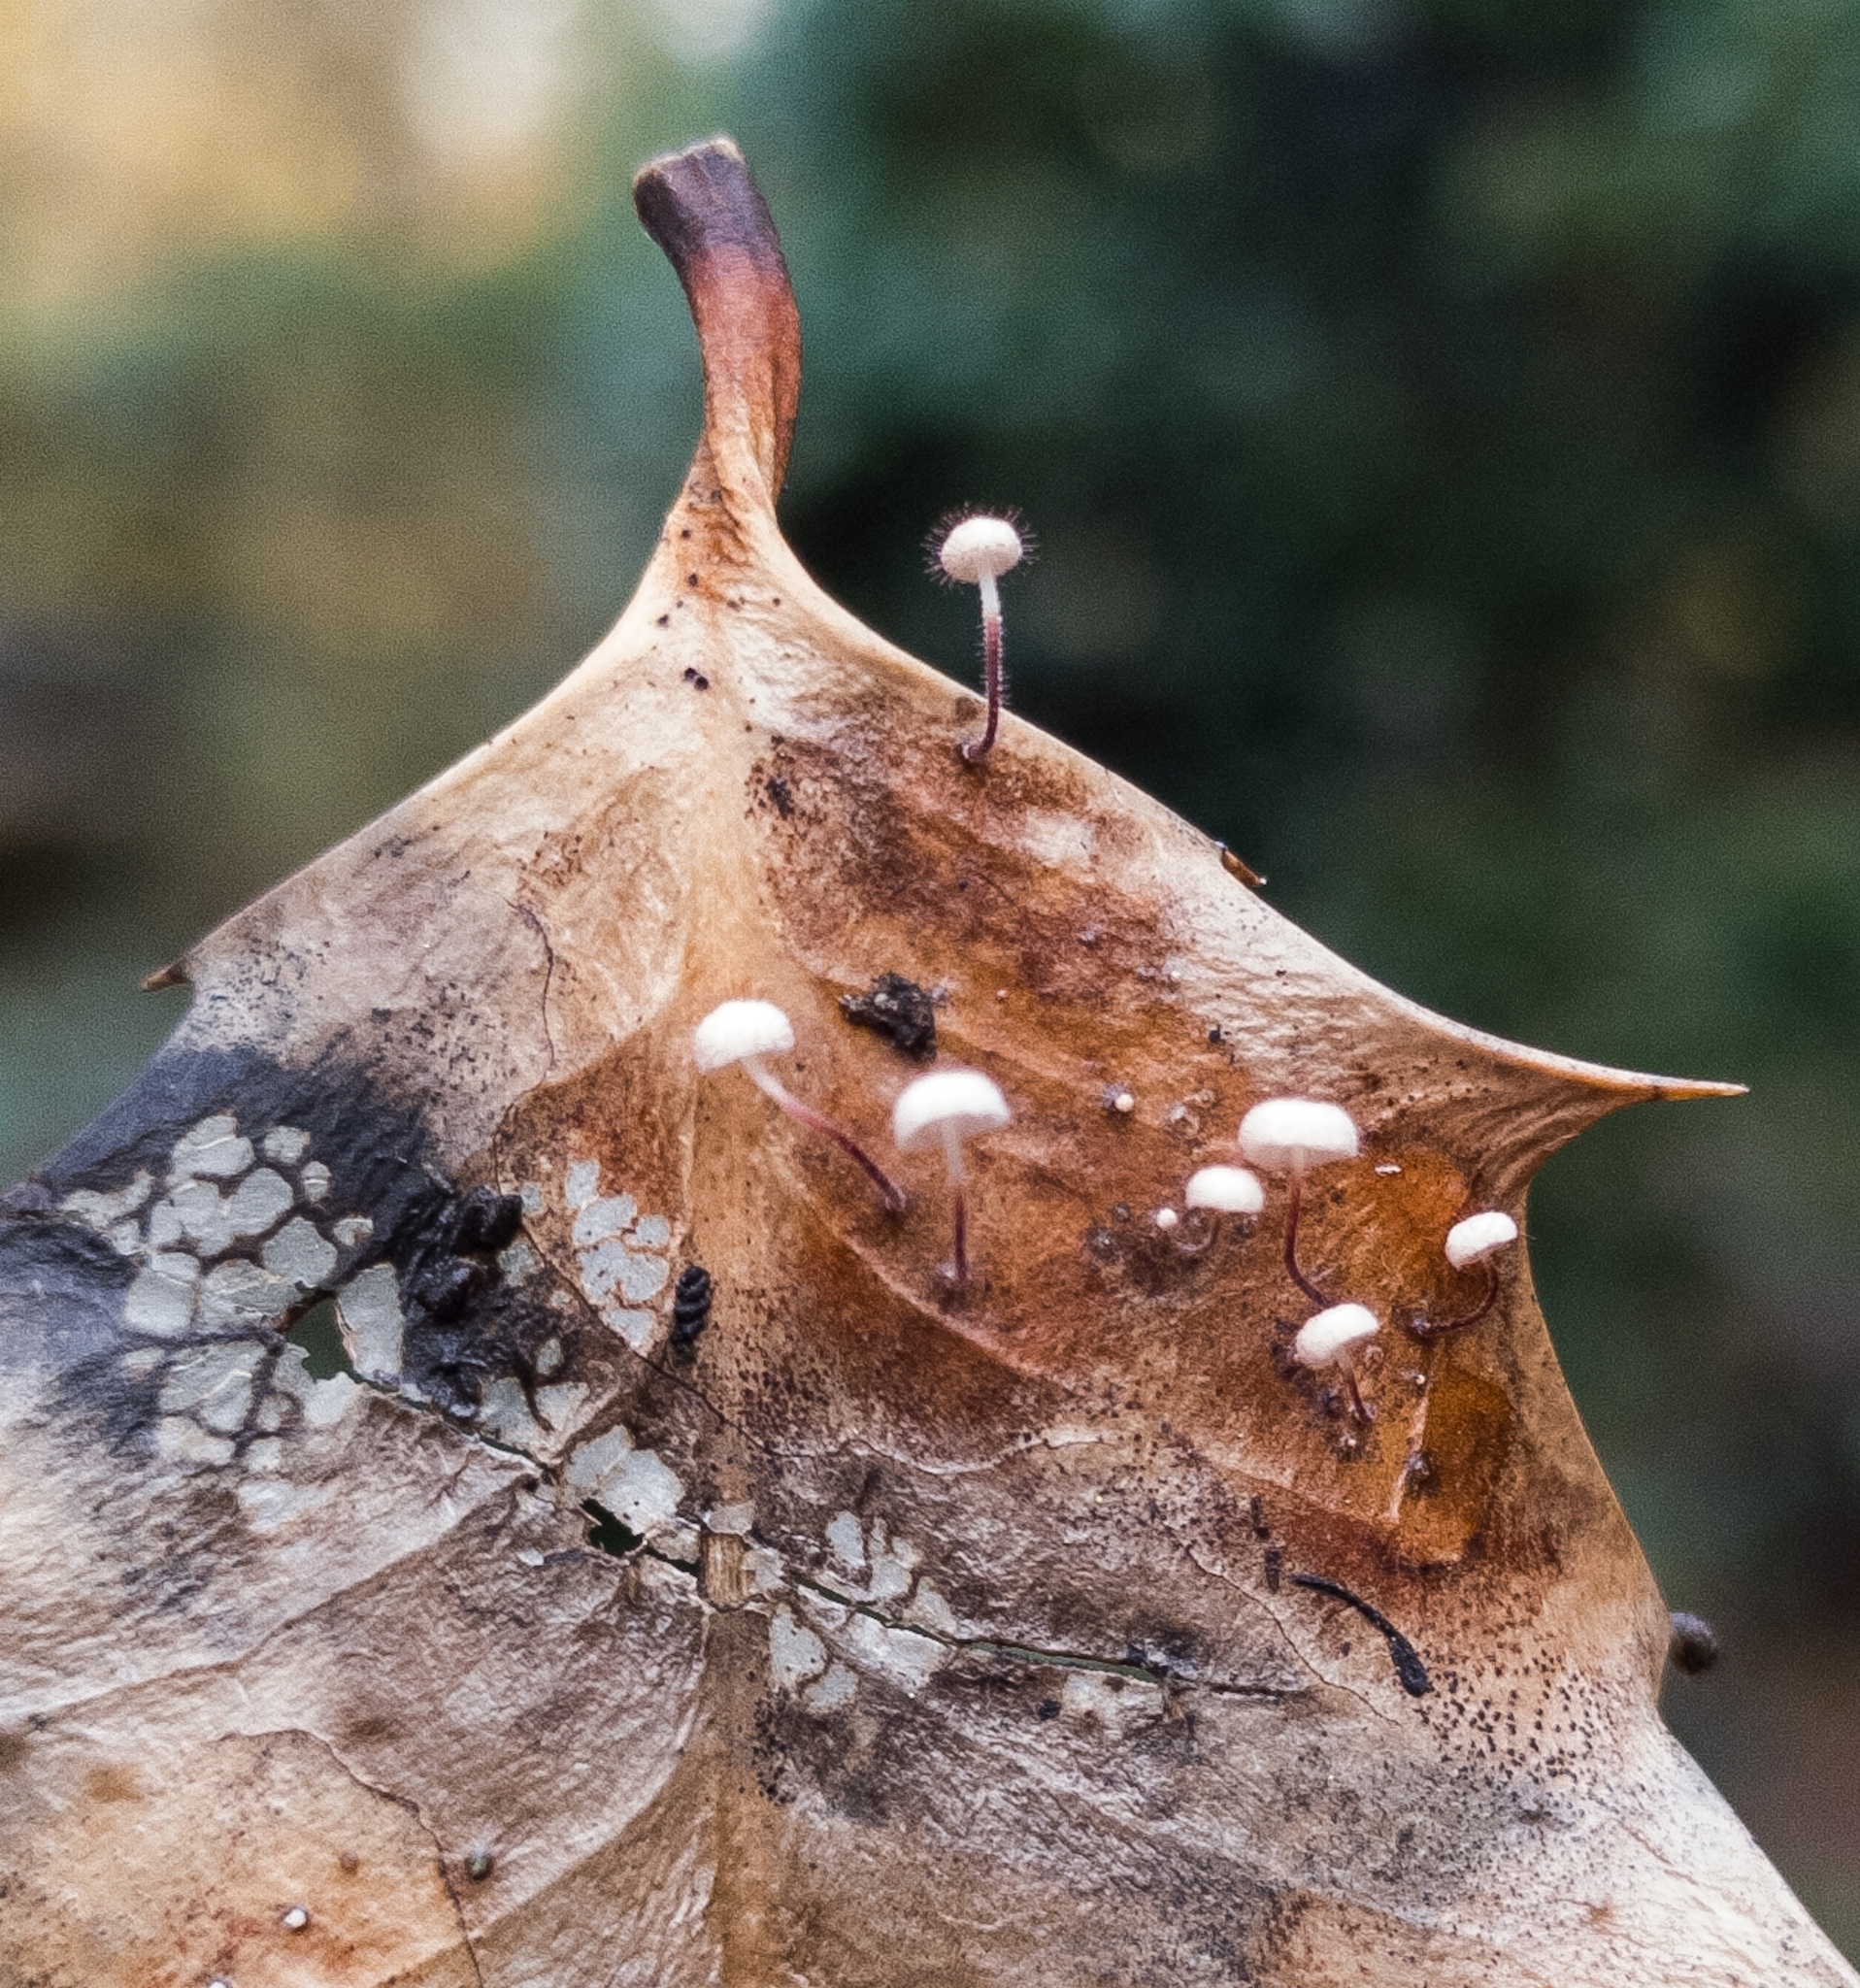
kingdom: Fungi
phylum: Basidiomycota
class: Agaricomycetes
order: Agaricales
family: Marasmiaceae
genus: Marasmius
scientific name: Marasmius hudsonii
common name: Holly parachute
